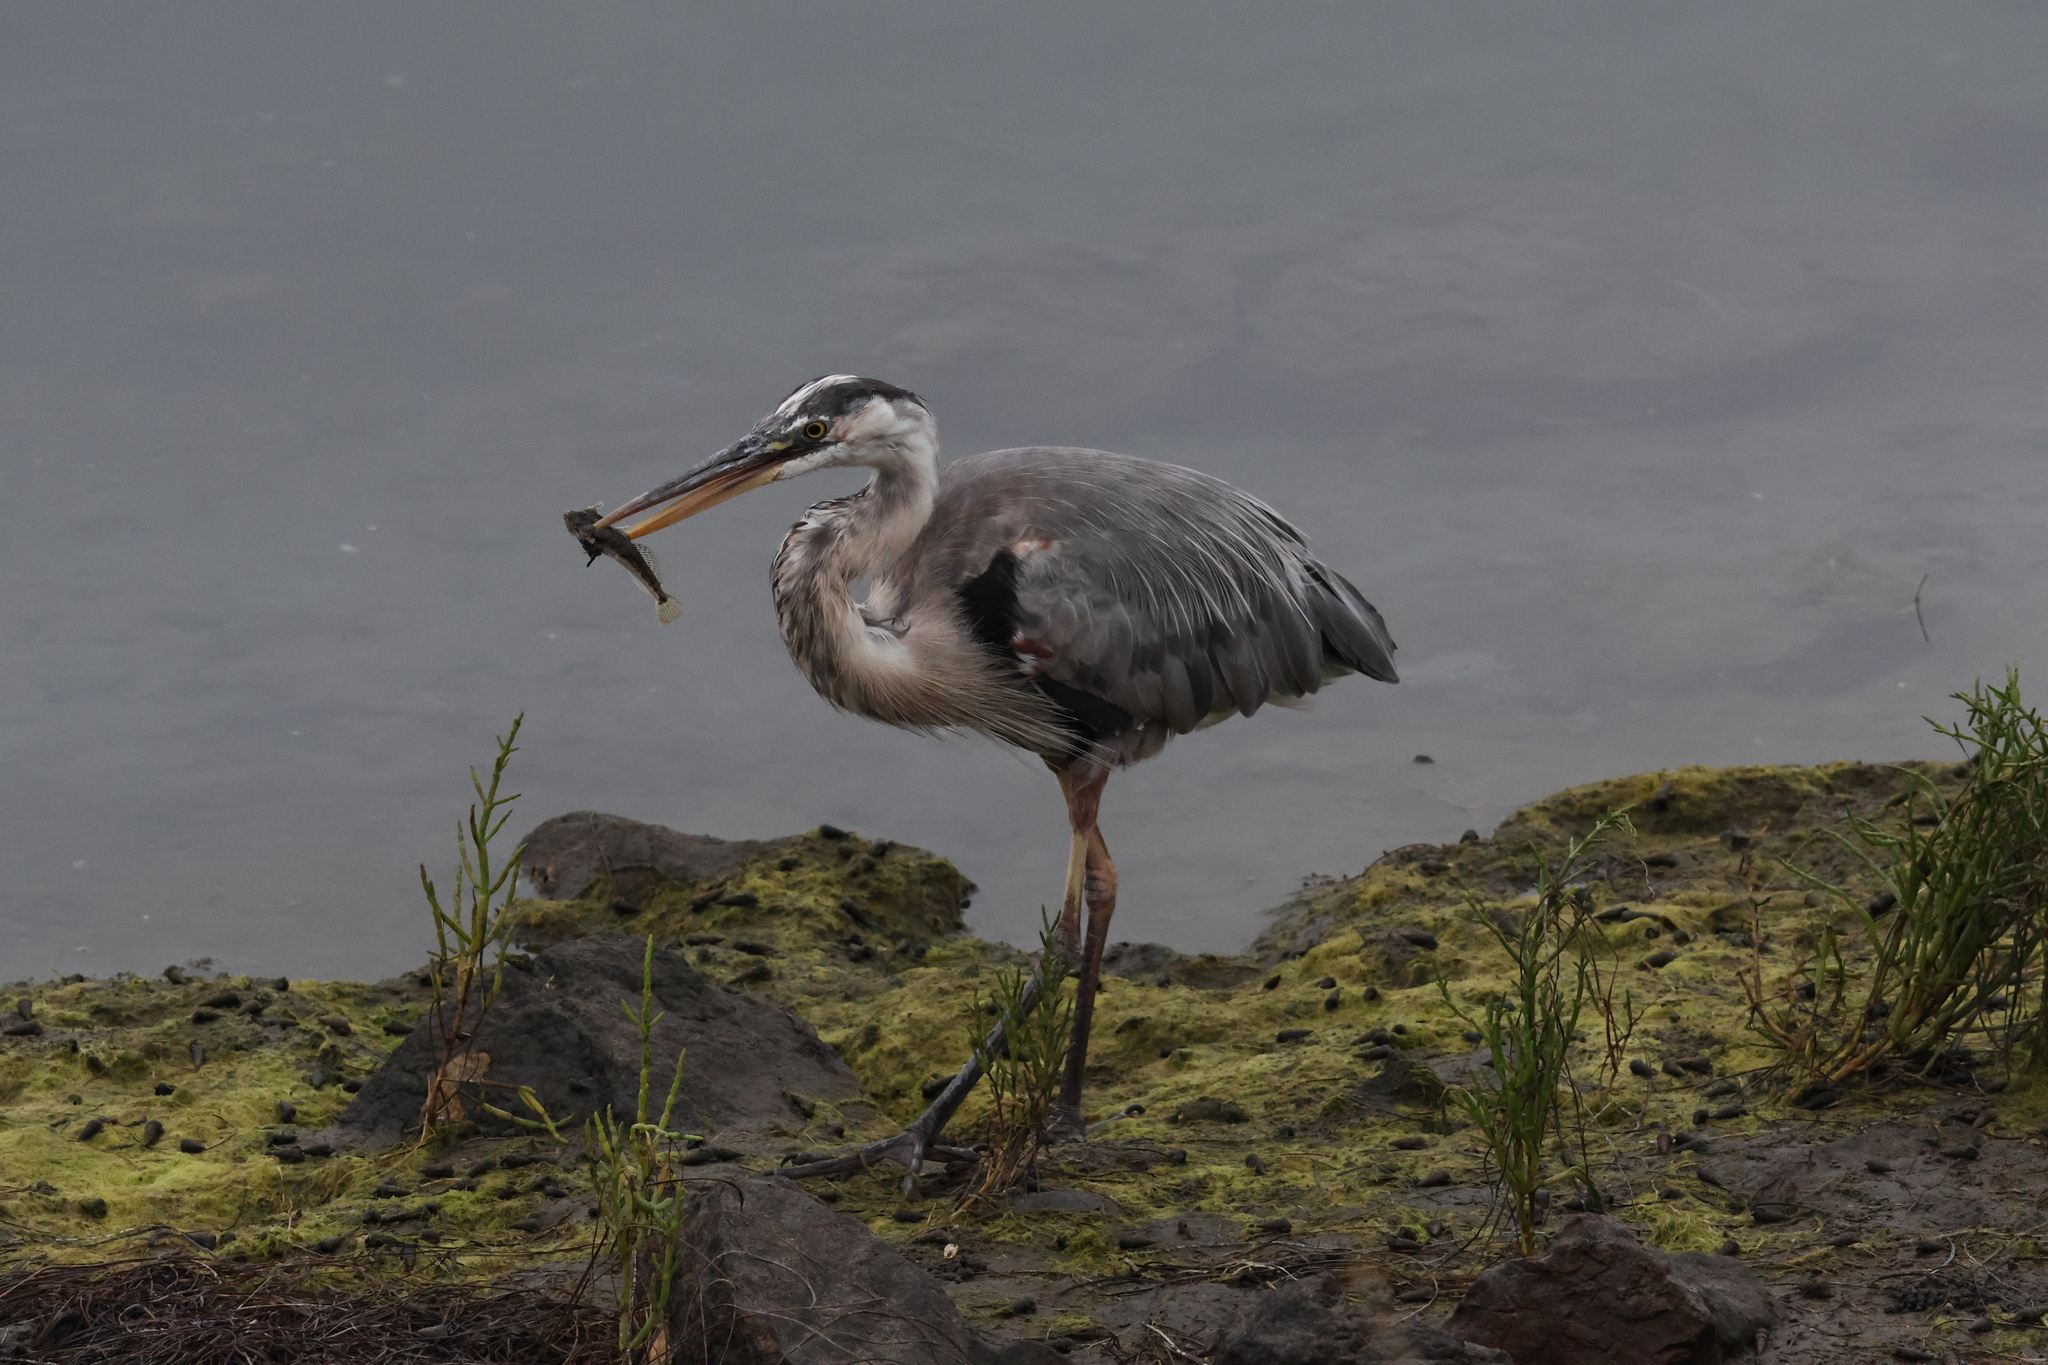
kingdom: Animalia
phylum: Chordata
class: Aves
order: Pelecaniformes
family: Ardeidae
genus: Ardea
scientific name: Ardea herodias
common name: Great blue heron
